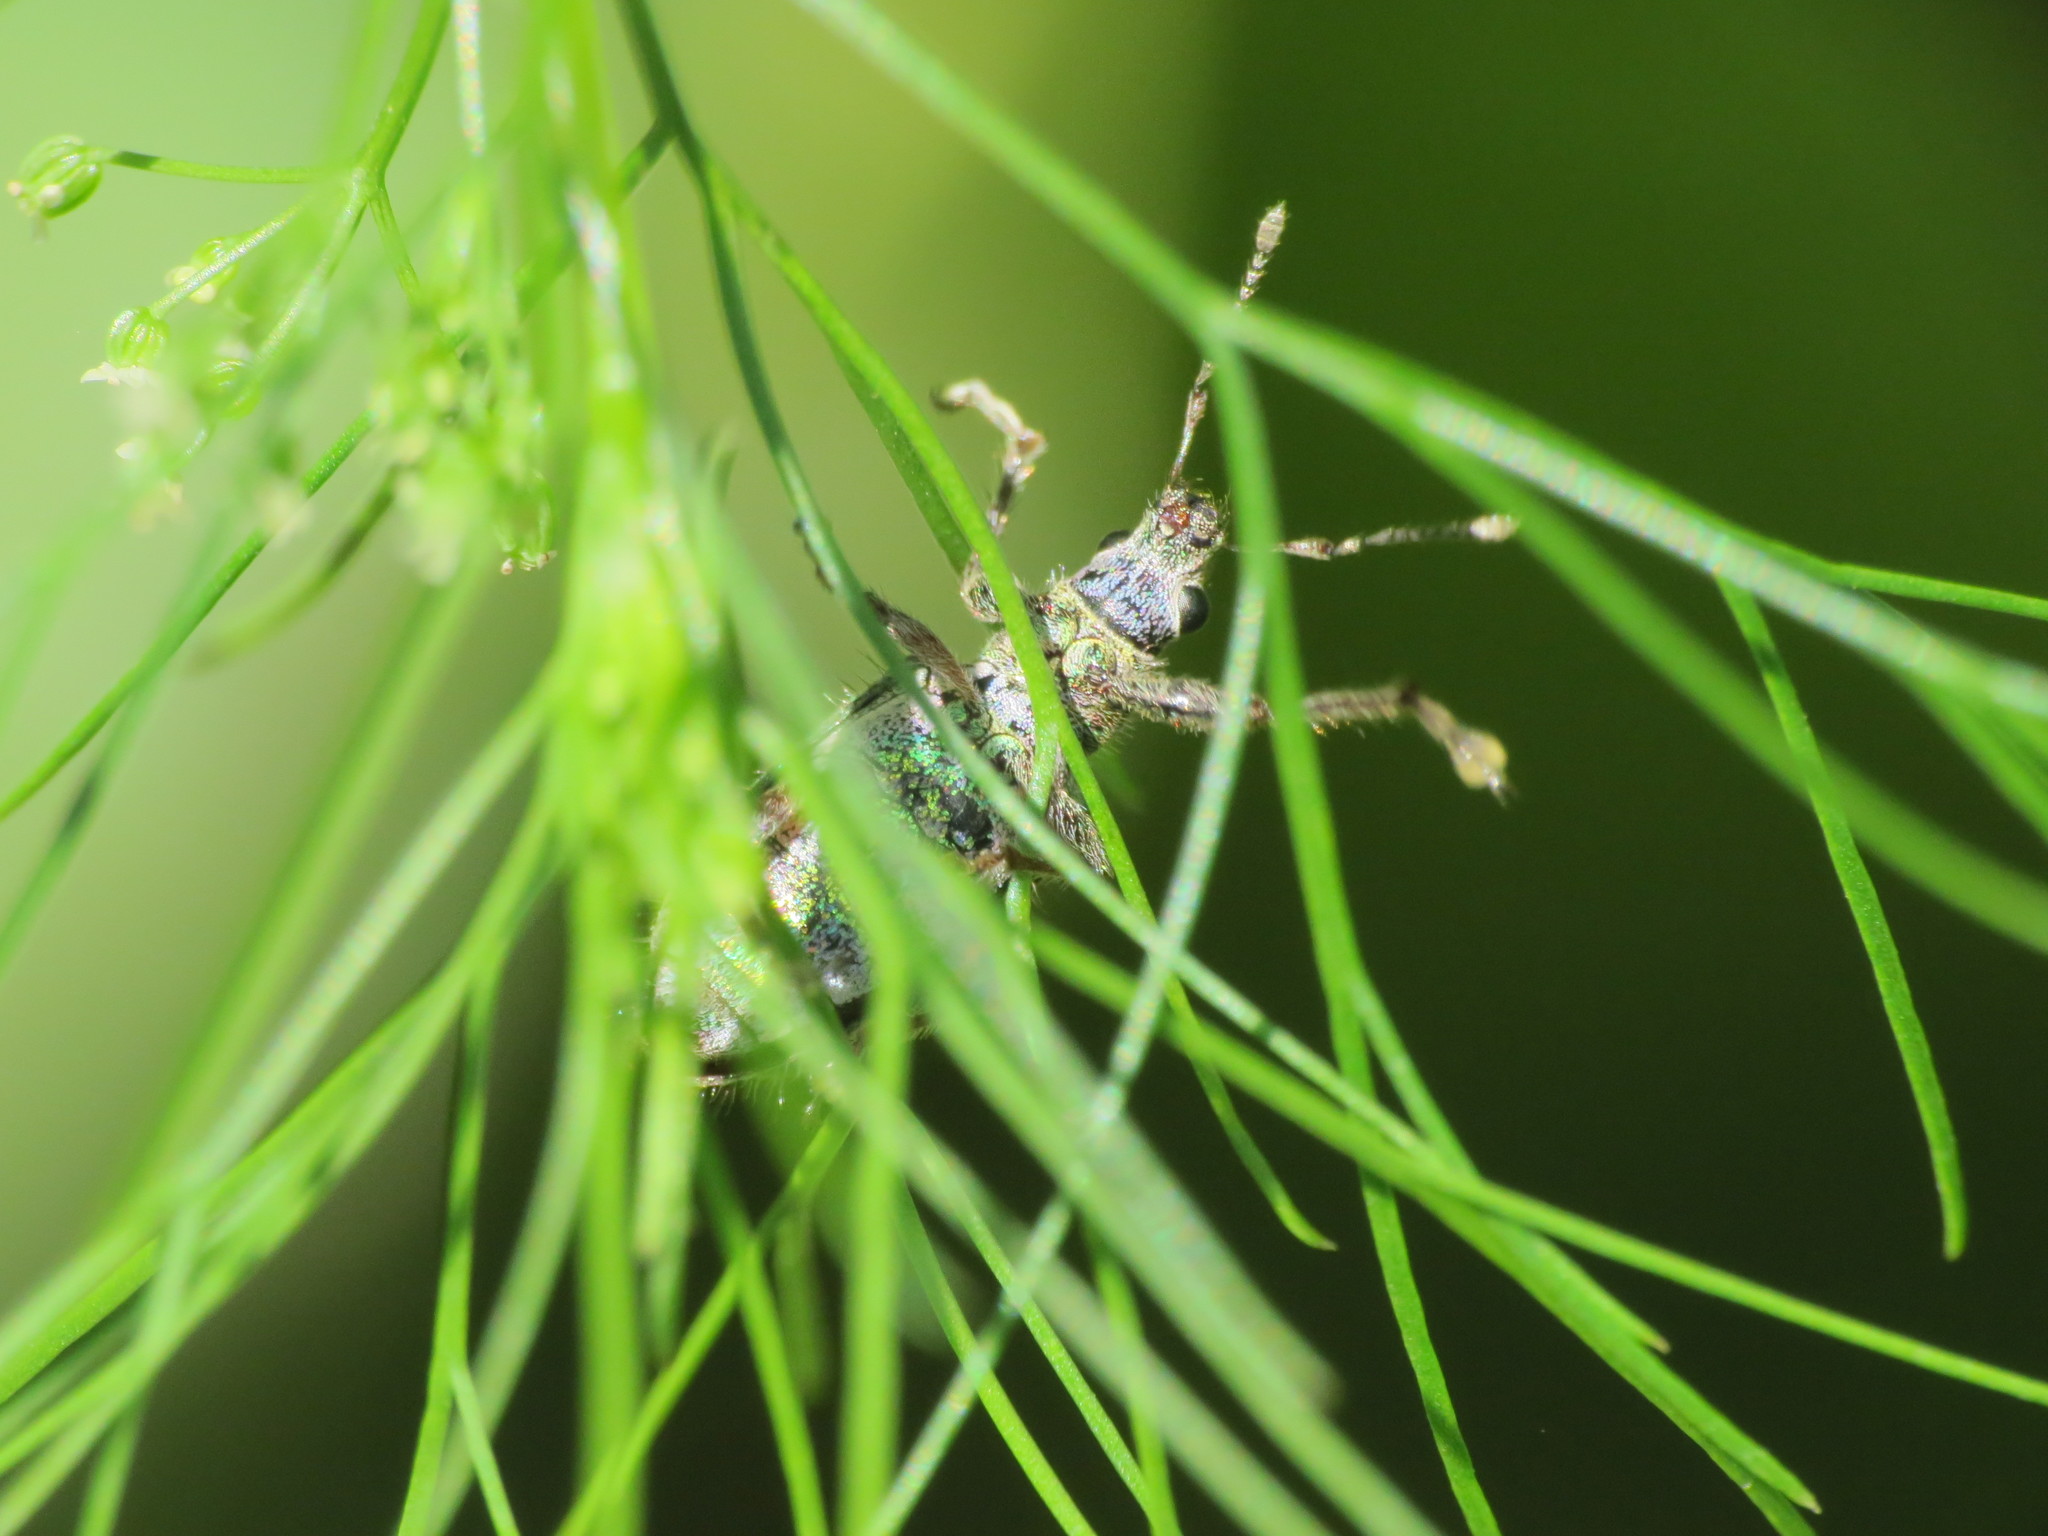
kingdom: Animalia
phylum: Arthropoda
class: Insecta
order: Coleoptera
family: Curculionidae
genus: Lanterius
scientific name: Lanterius micaceus
